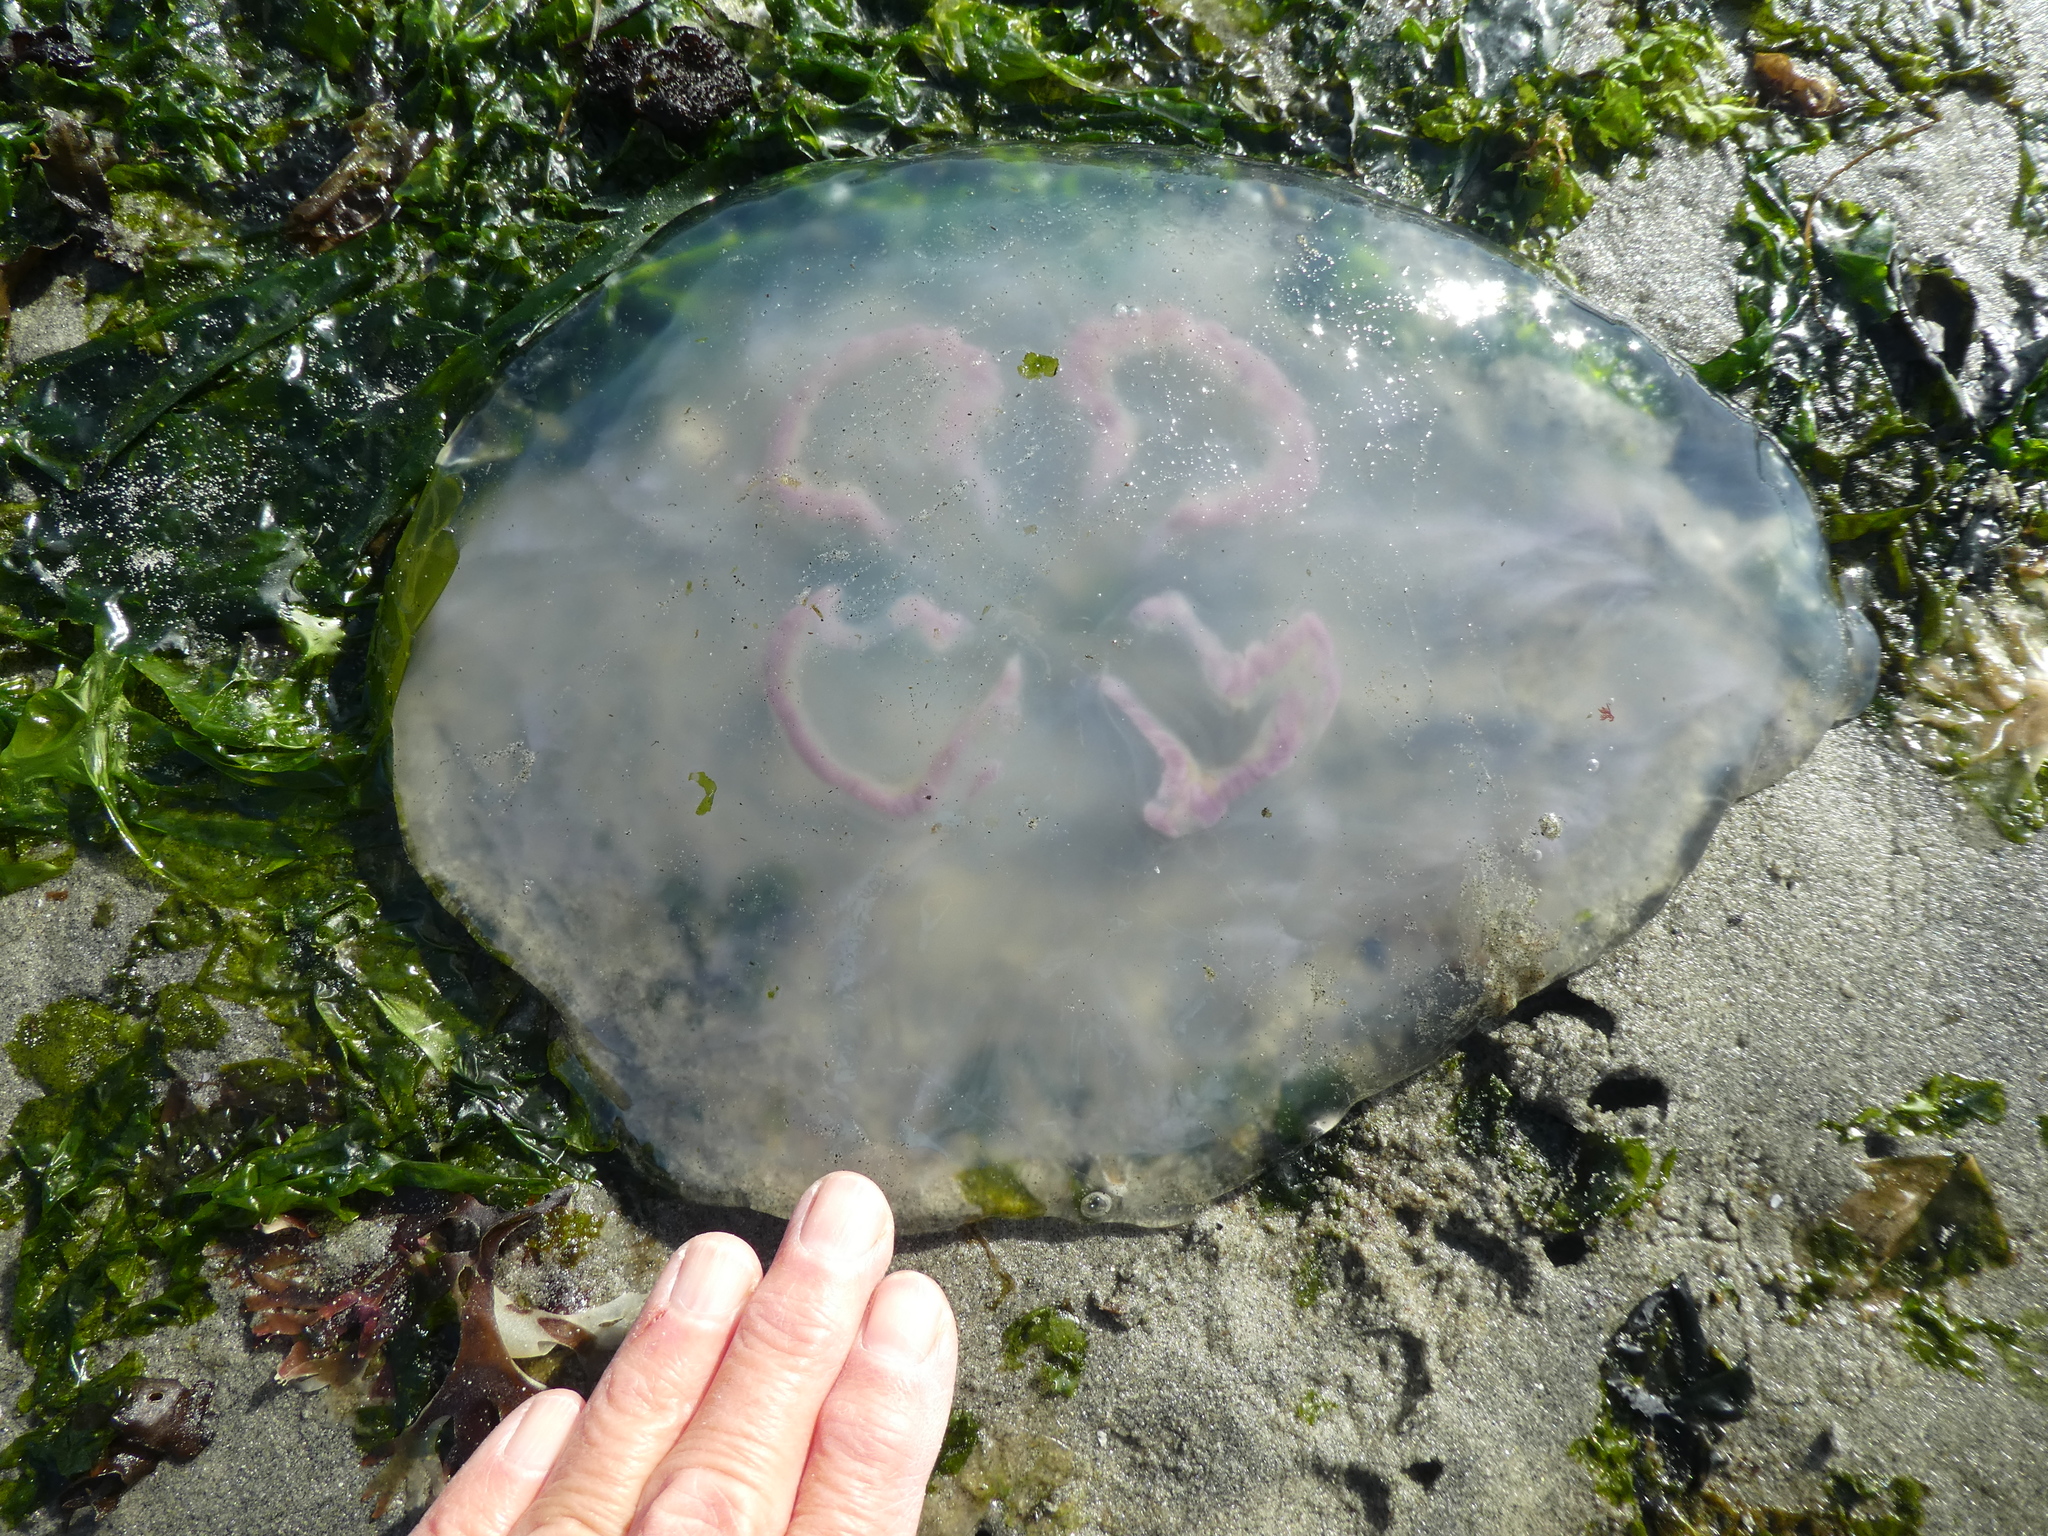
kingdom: Animalia
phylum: Cnidaria
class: Scyphozoa
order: Semaeostomeae
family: Ulmaridae
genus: Aurelia
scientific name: Aurelia labiata
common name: Pacific moon jelly
